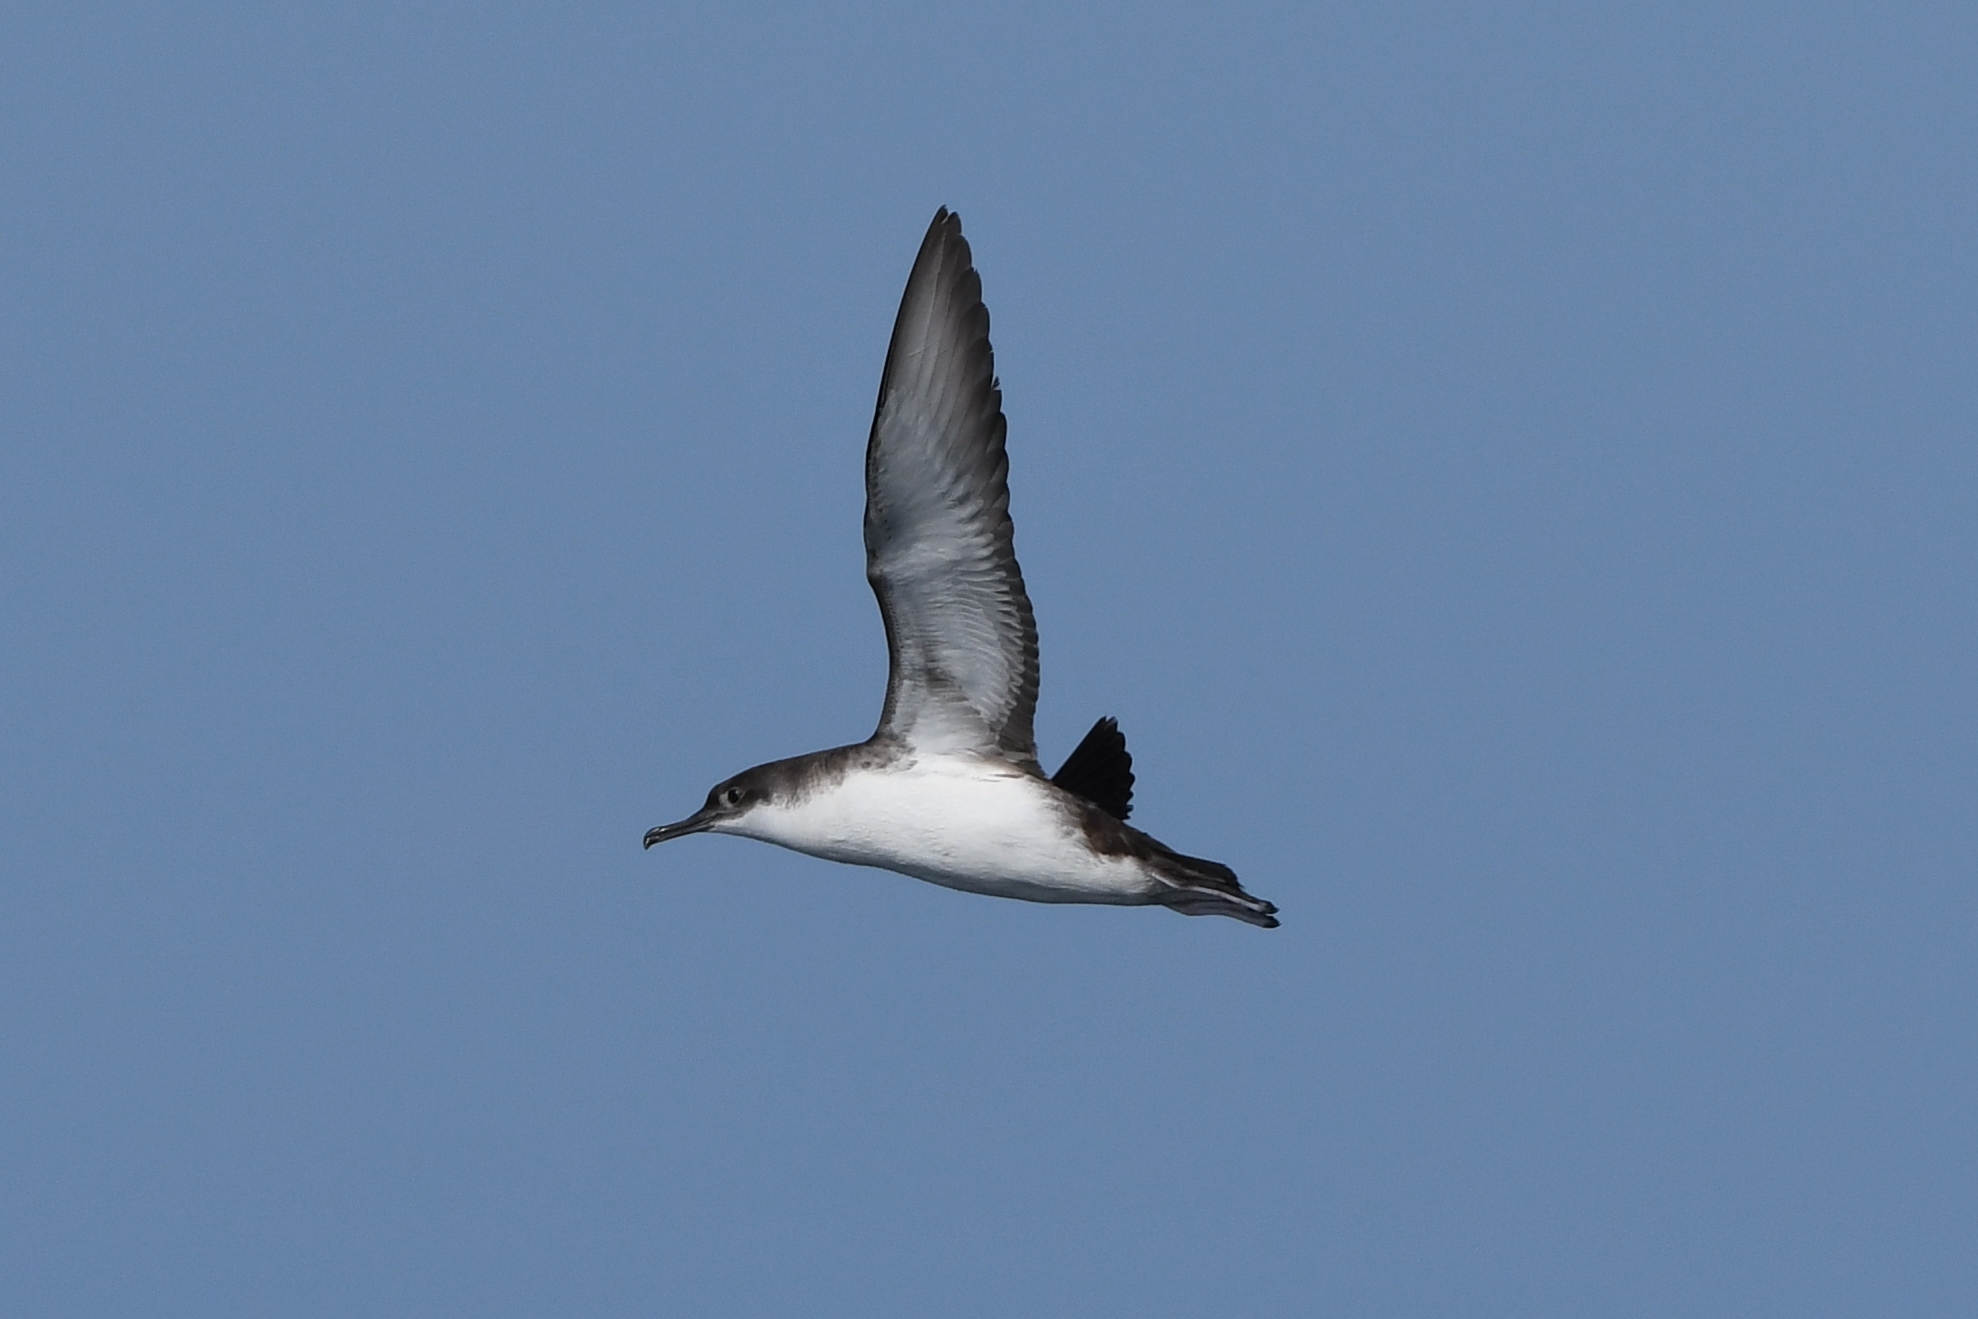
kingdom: Animalia
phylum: Chordata
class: Aves
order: Procellariiformes
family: Procellariidae
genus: Puffinus
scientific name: Puffinus yelkouan
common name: Yelkouan shearwater
